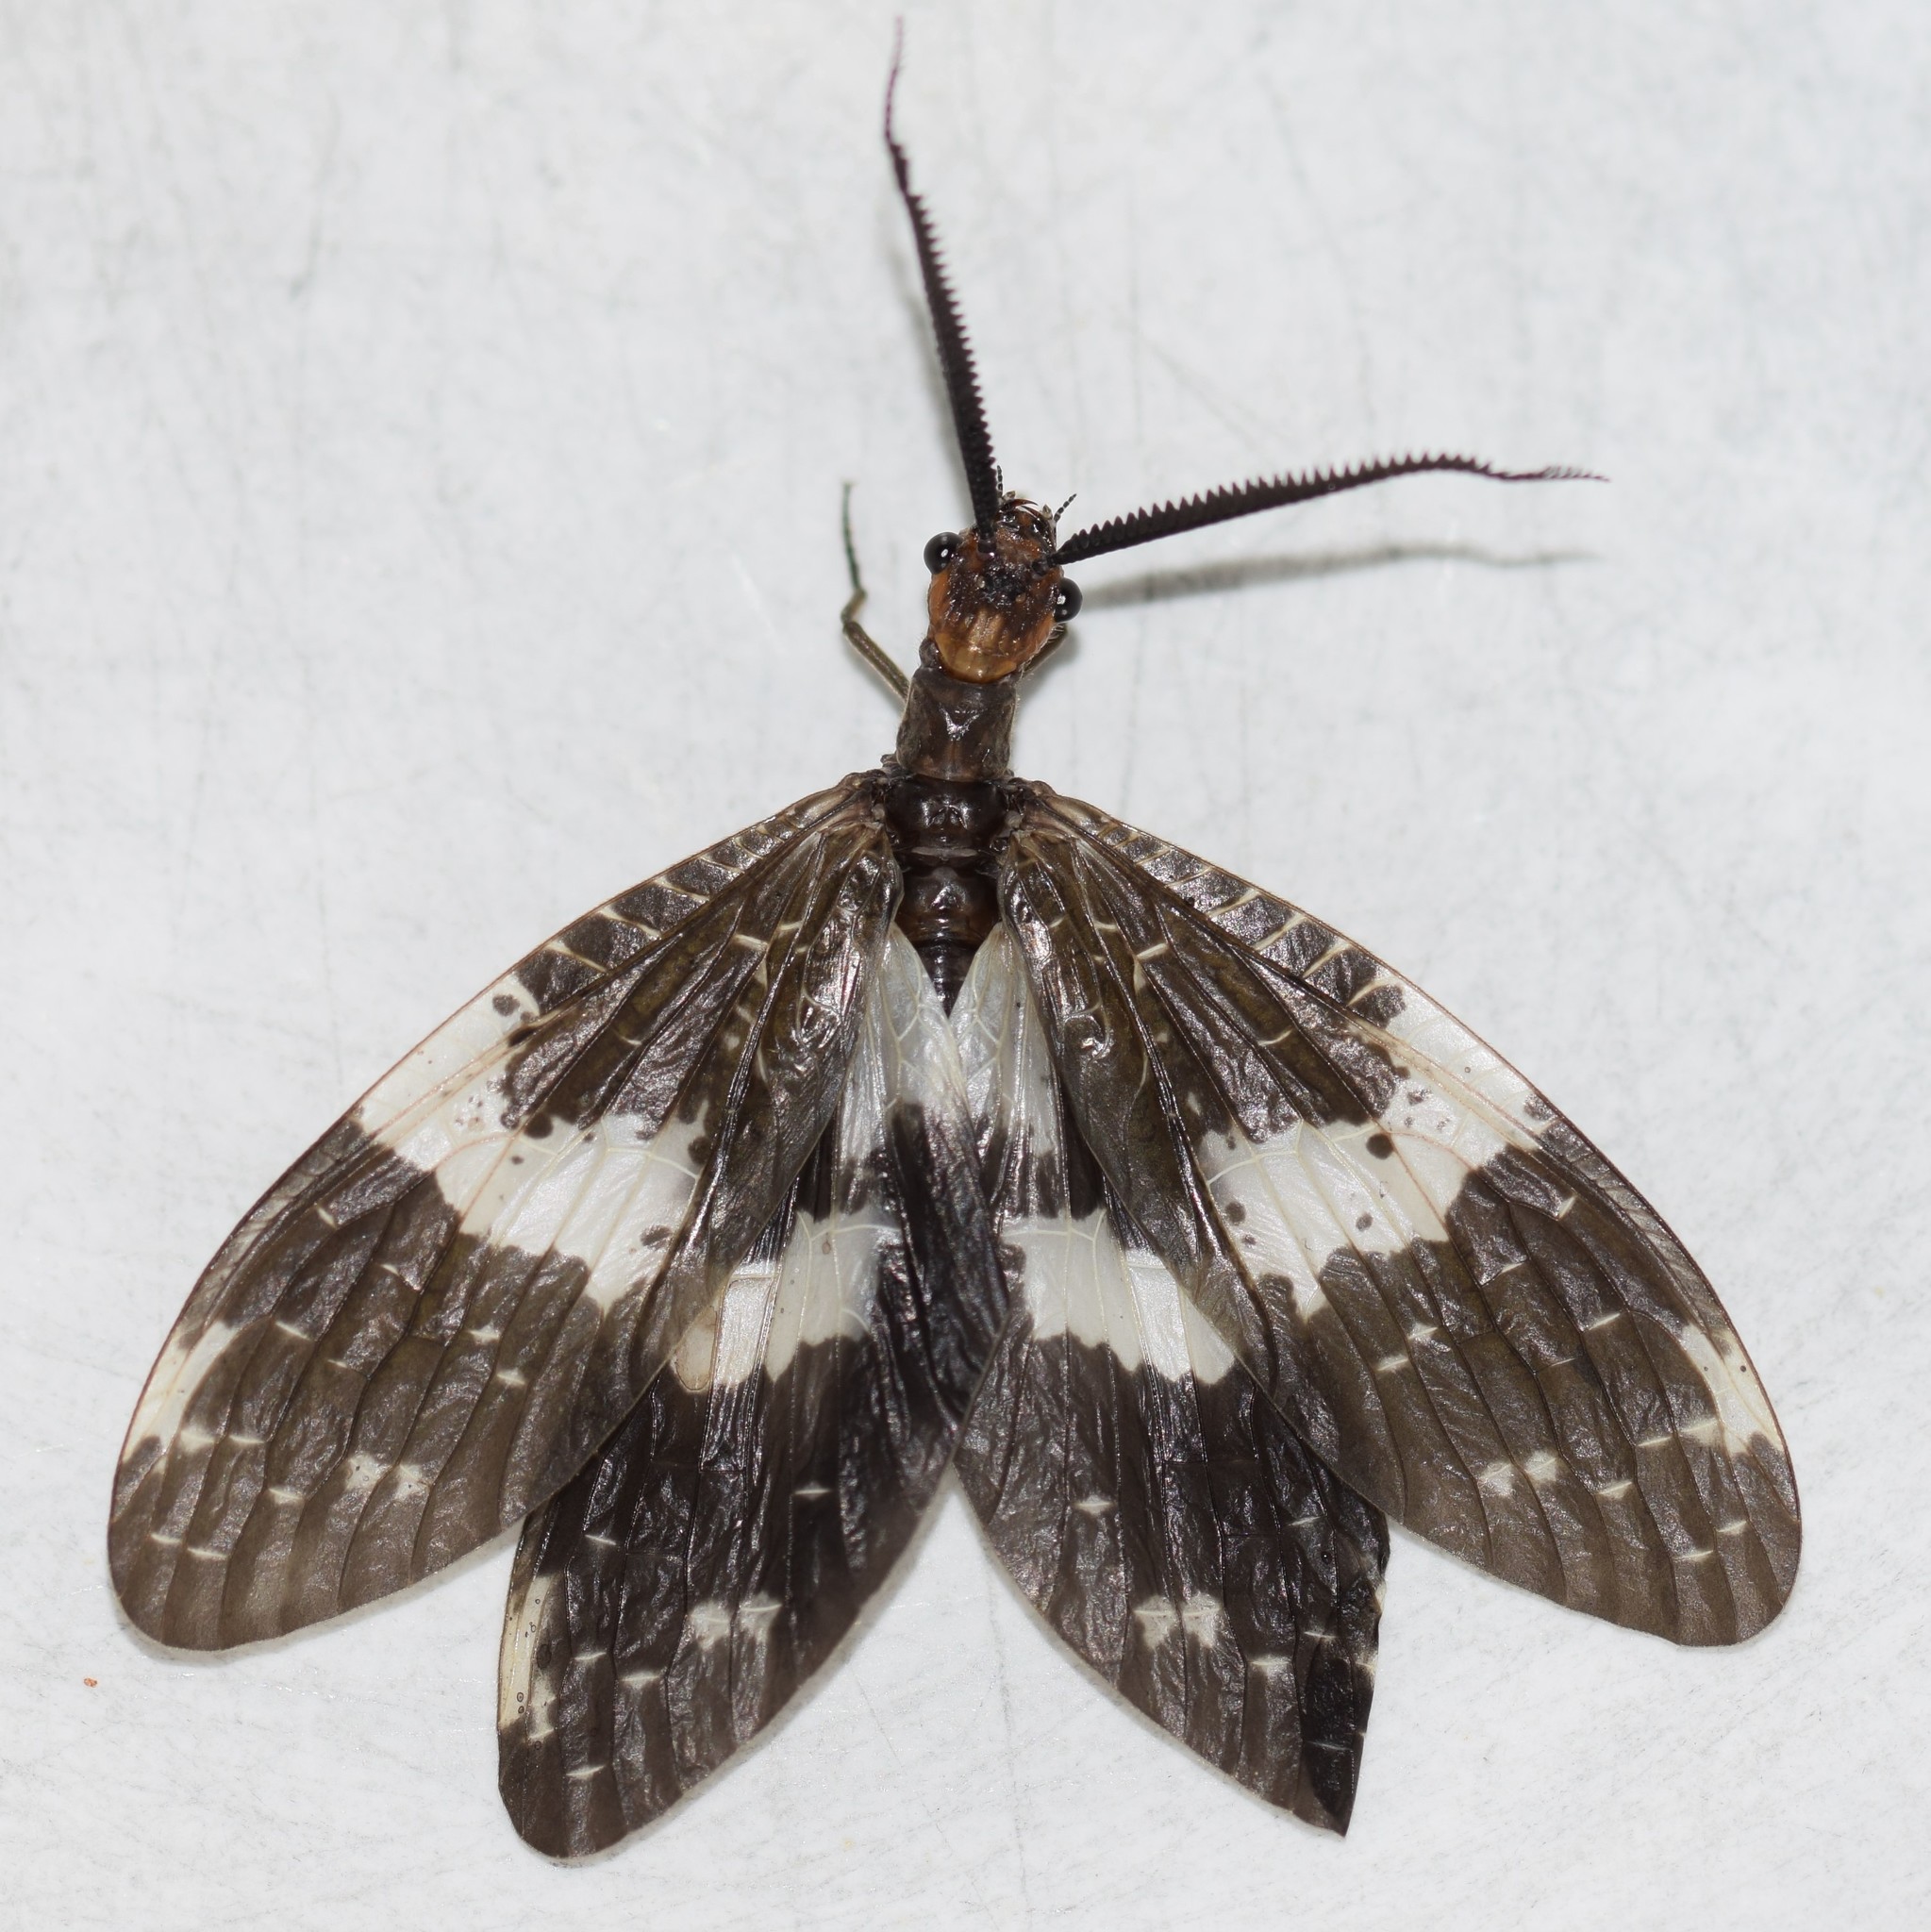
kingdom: Animalia
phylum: Arthropoda
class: Insecta
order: Megaloptera
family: Corydalidae
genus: Nigronia
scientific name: Nigronia fasciata
